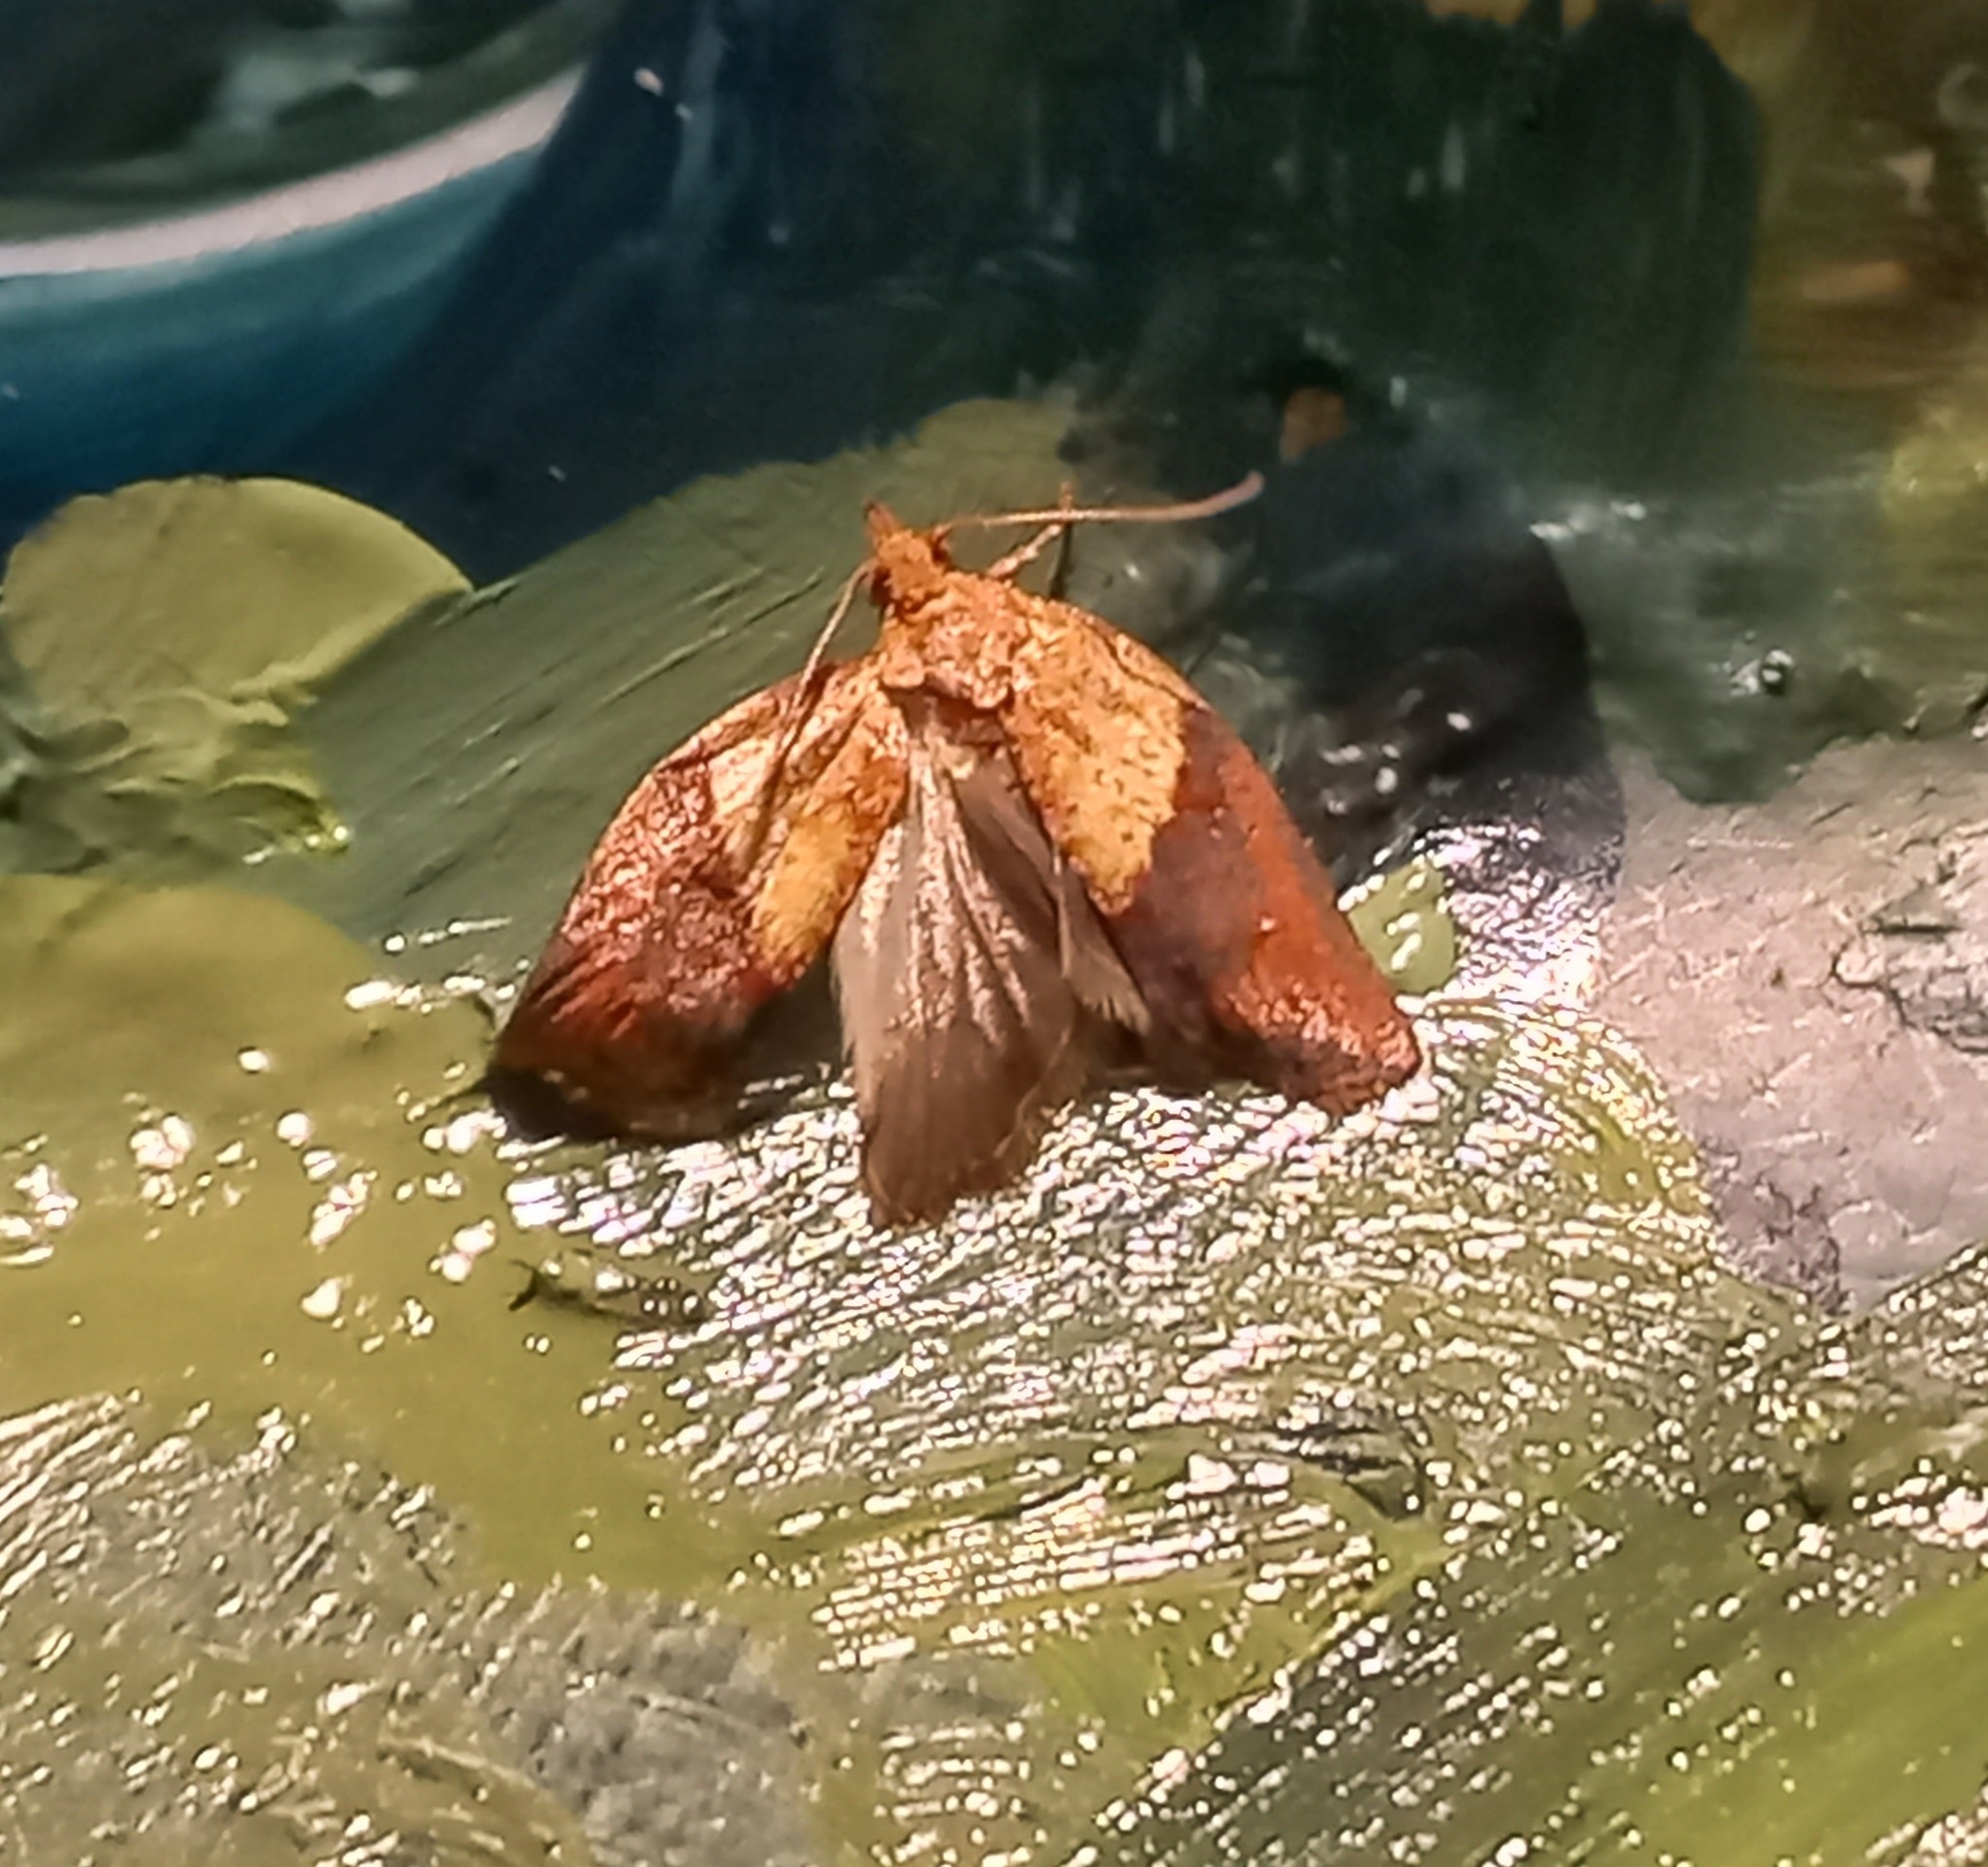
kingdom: Animalia
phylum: Arthropoda
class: Insecta
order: Lepidoptera
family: Tortricidae
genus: Epiphyas
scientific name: Epiphyas postvittana
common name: Light brown apple moth
